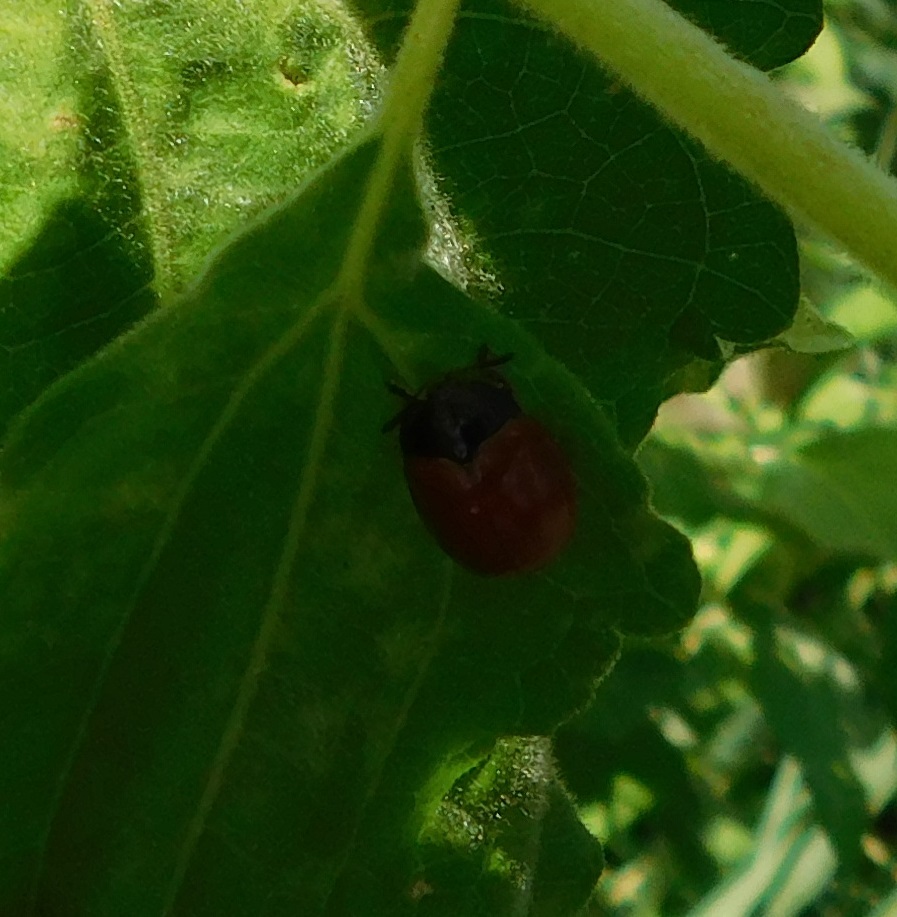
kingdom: Animalia
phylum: Arthropoda
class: Insecta
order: Coleoptera
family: Chrysomelidae
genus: Chelymorpha
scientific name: Chelymorpha cribraria
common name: Tortoise beetle
